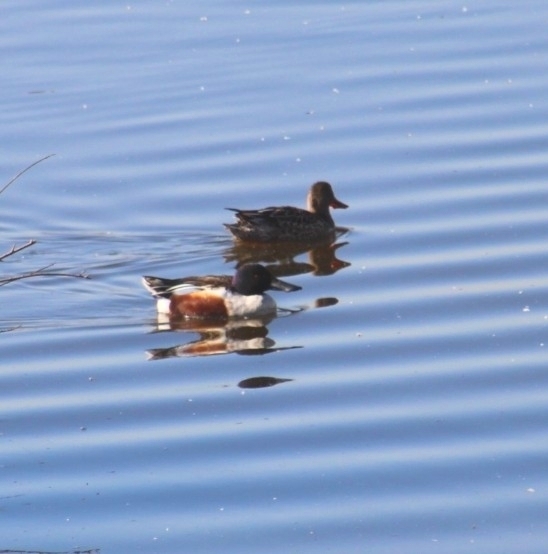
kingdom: Animalia
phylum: Chordata
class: Aves
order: Anseriformes
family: Anatidae
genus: Spatula
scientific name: Spatula clypeata
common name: Northern shoveler
